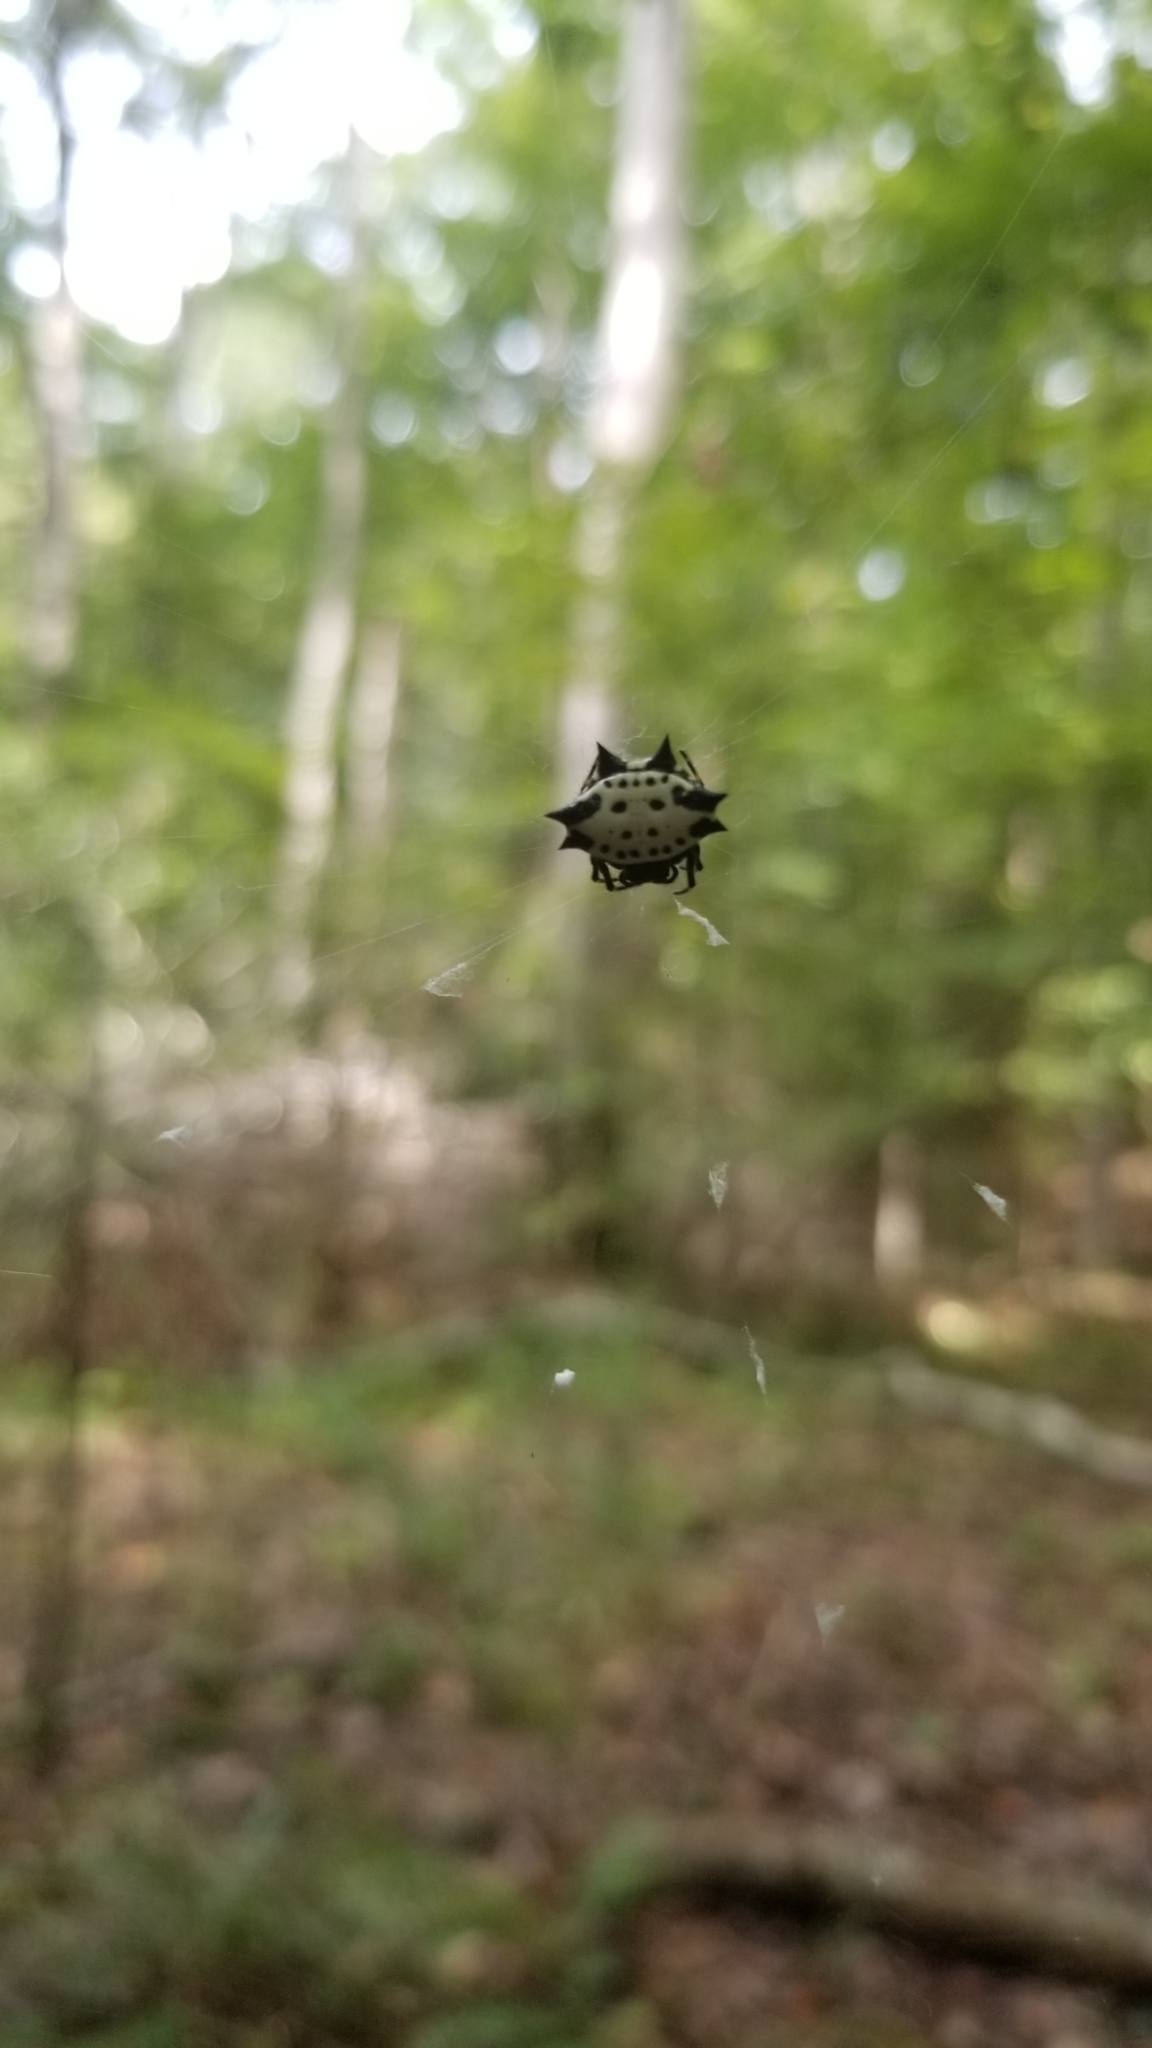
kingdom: Animalia
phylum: Arthropoda
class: Arachnida
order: Araneae
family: Araneidae
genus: Gasteracantha
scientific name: Gasteracantha cancriformis
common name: Orb weavers
